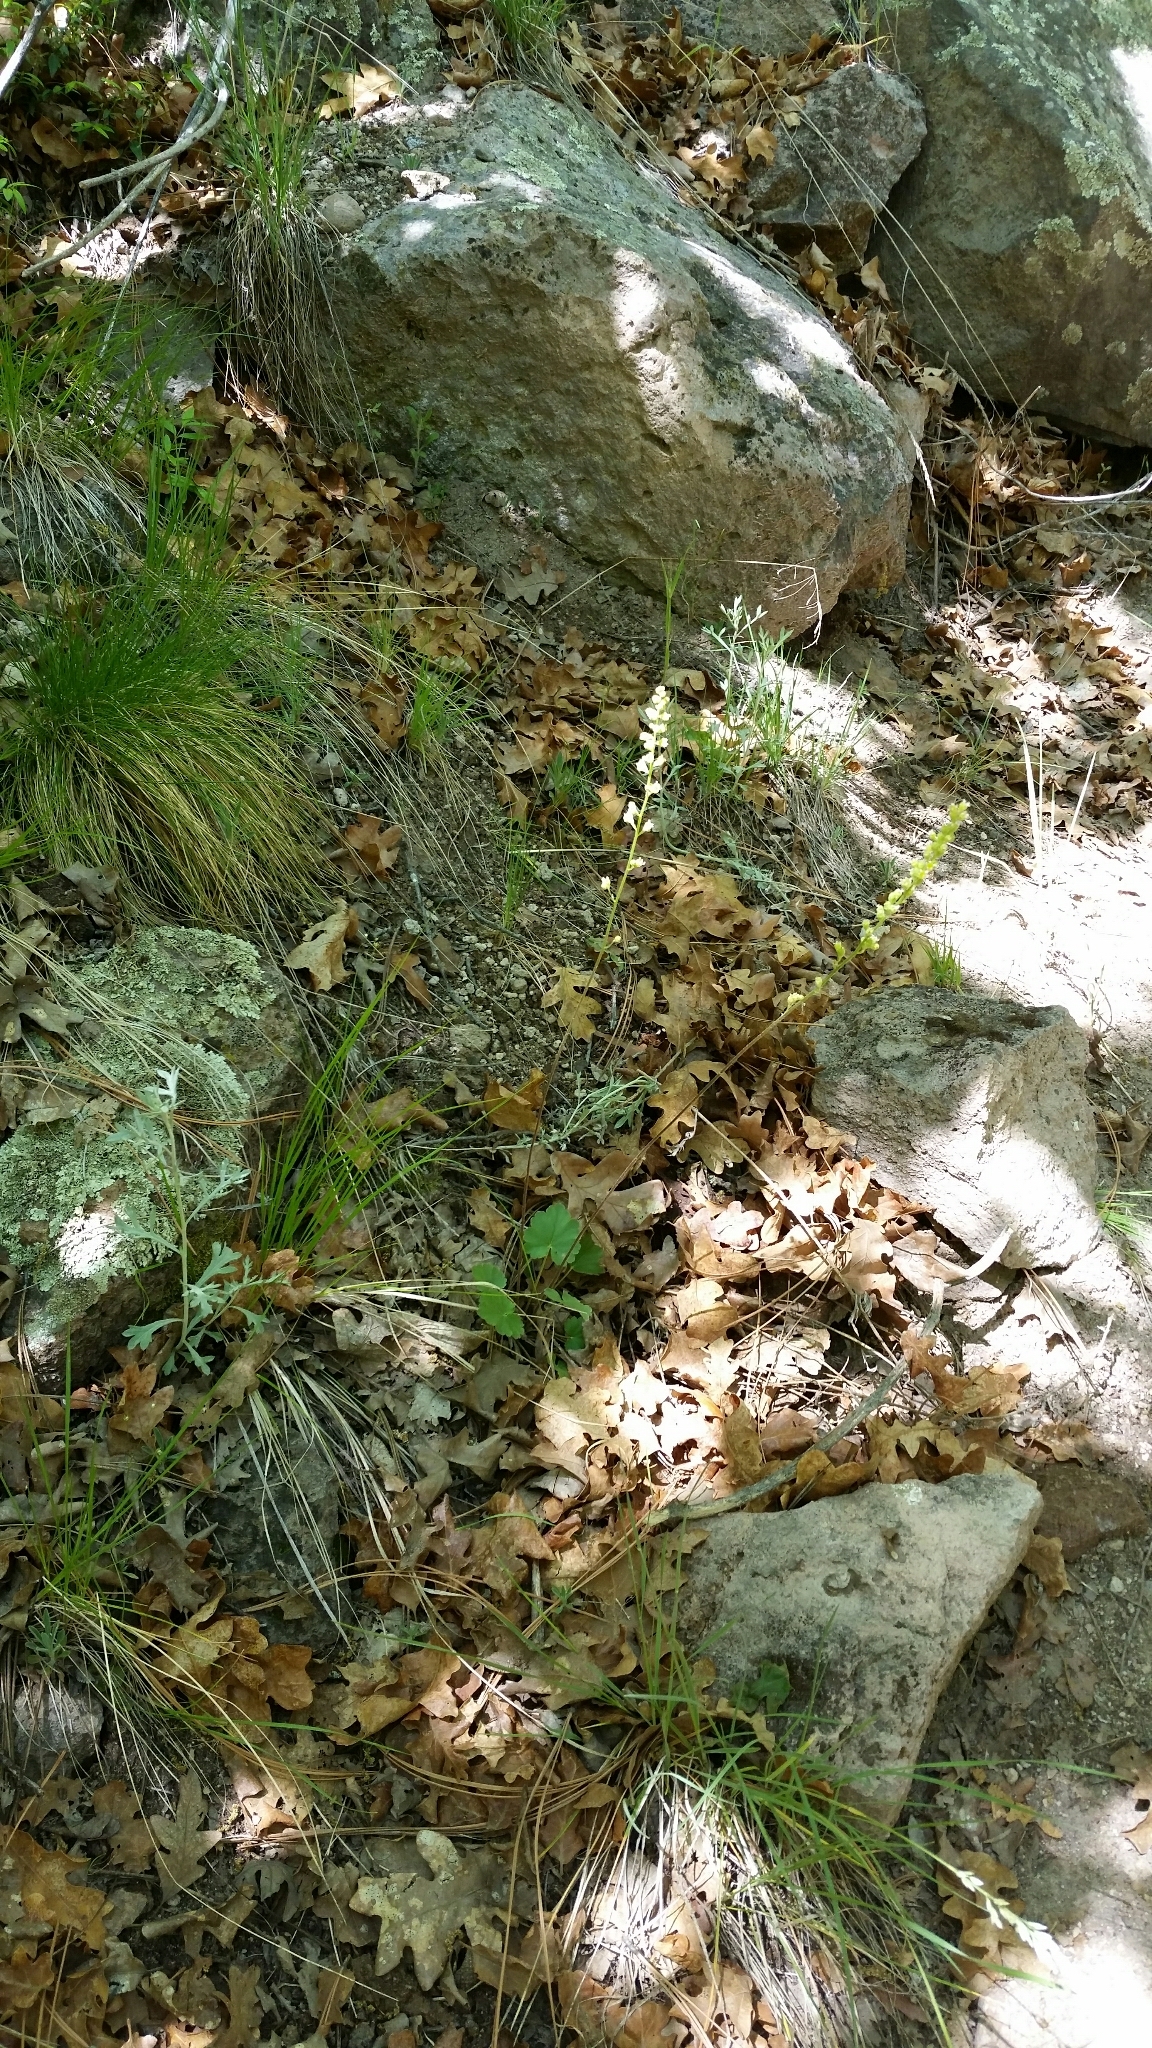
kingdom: Plantae
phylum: Tracheophyta
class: Magnoliopsida
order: Saxifragales
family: Saxifragaceae
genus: Heuchera
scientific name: Heuchera parvifolia
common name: Common alumroot
